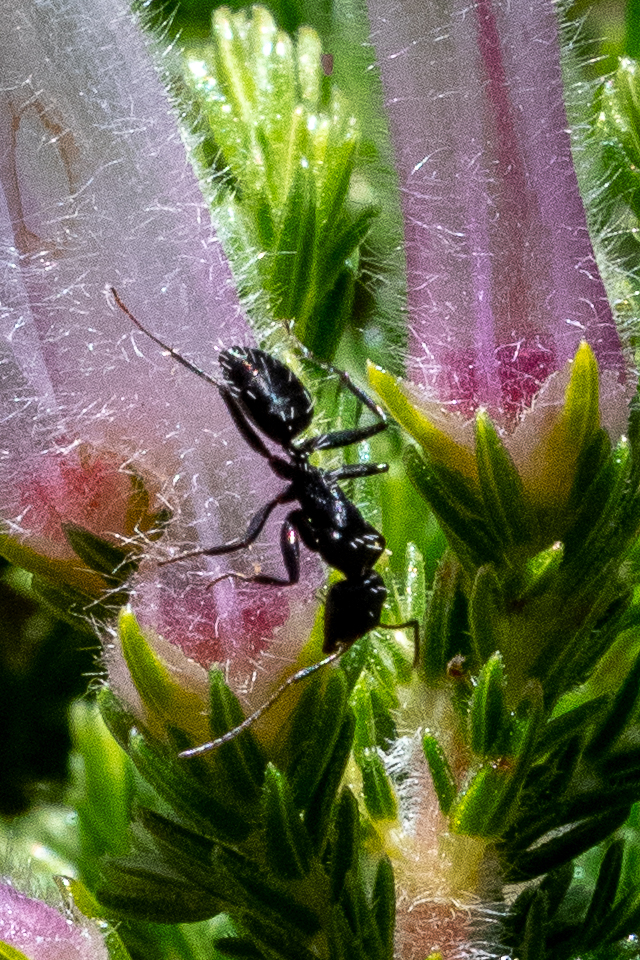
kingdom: Animalia
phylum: Arthropoda
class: Insecta
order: Hymenoptera
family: Formicidae
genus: Camponotus
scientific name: Camponotus niveosetosus
